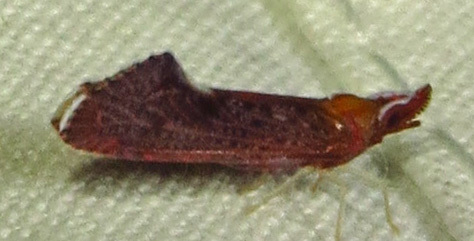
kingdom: Animalia
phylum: Arthropoda
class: Insecta
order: Hemiptera
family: Derbidae
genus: Apache
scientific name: Apache degeeri
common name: Red-fanned planthopper
